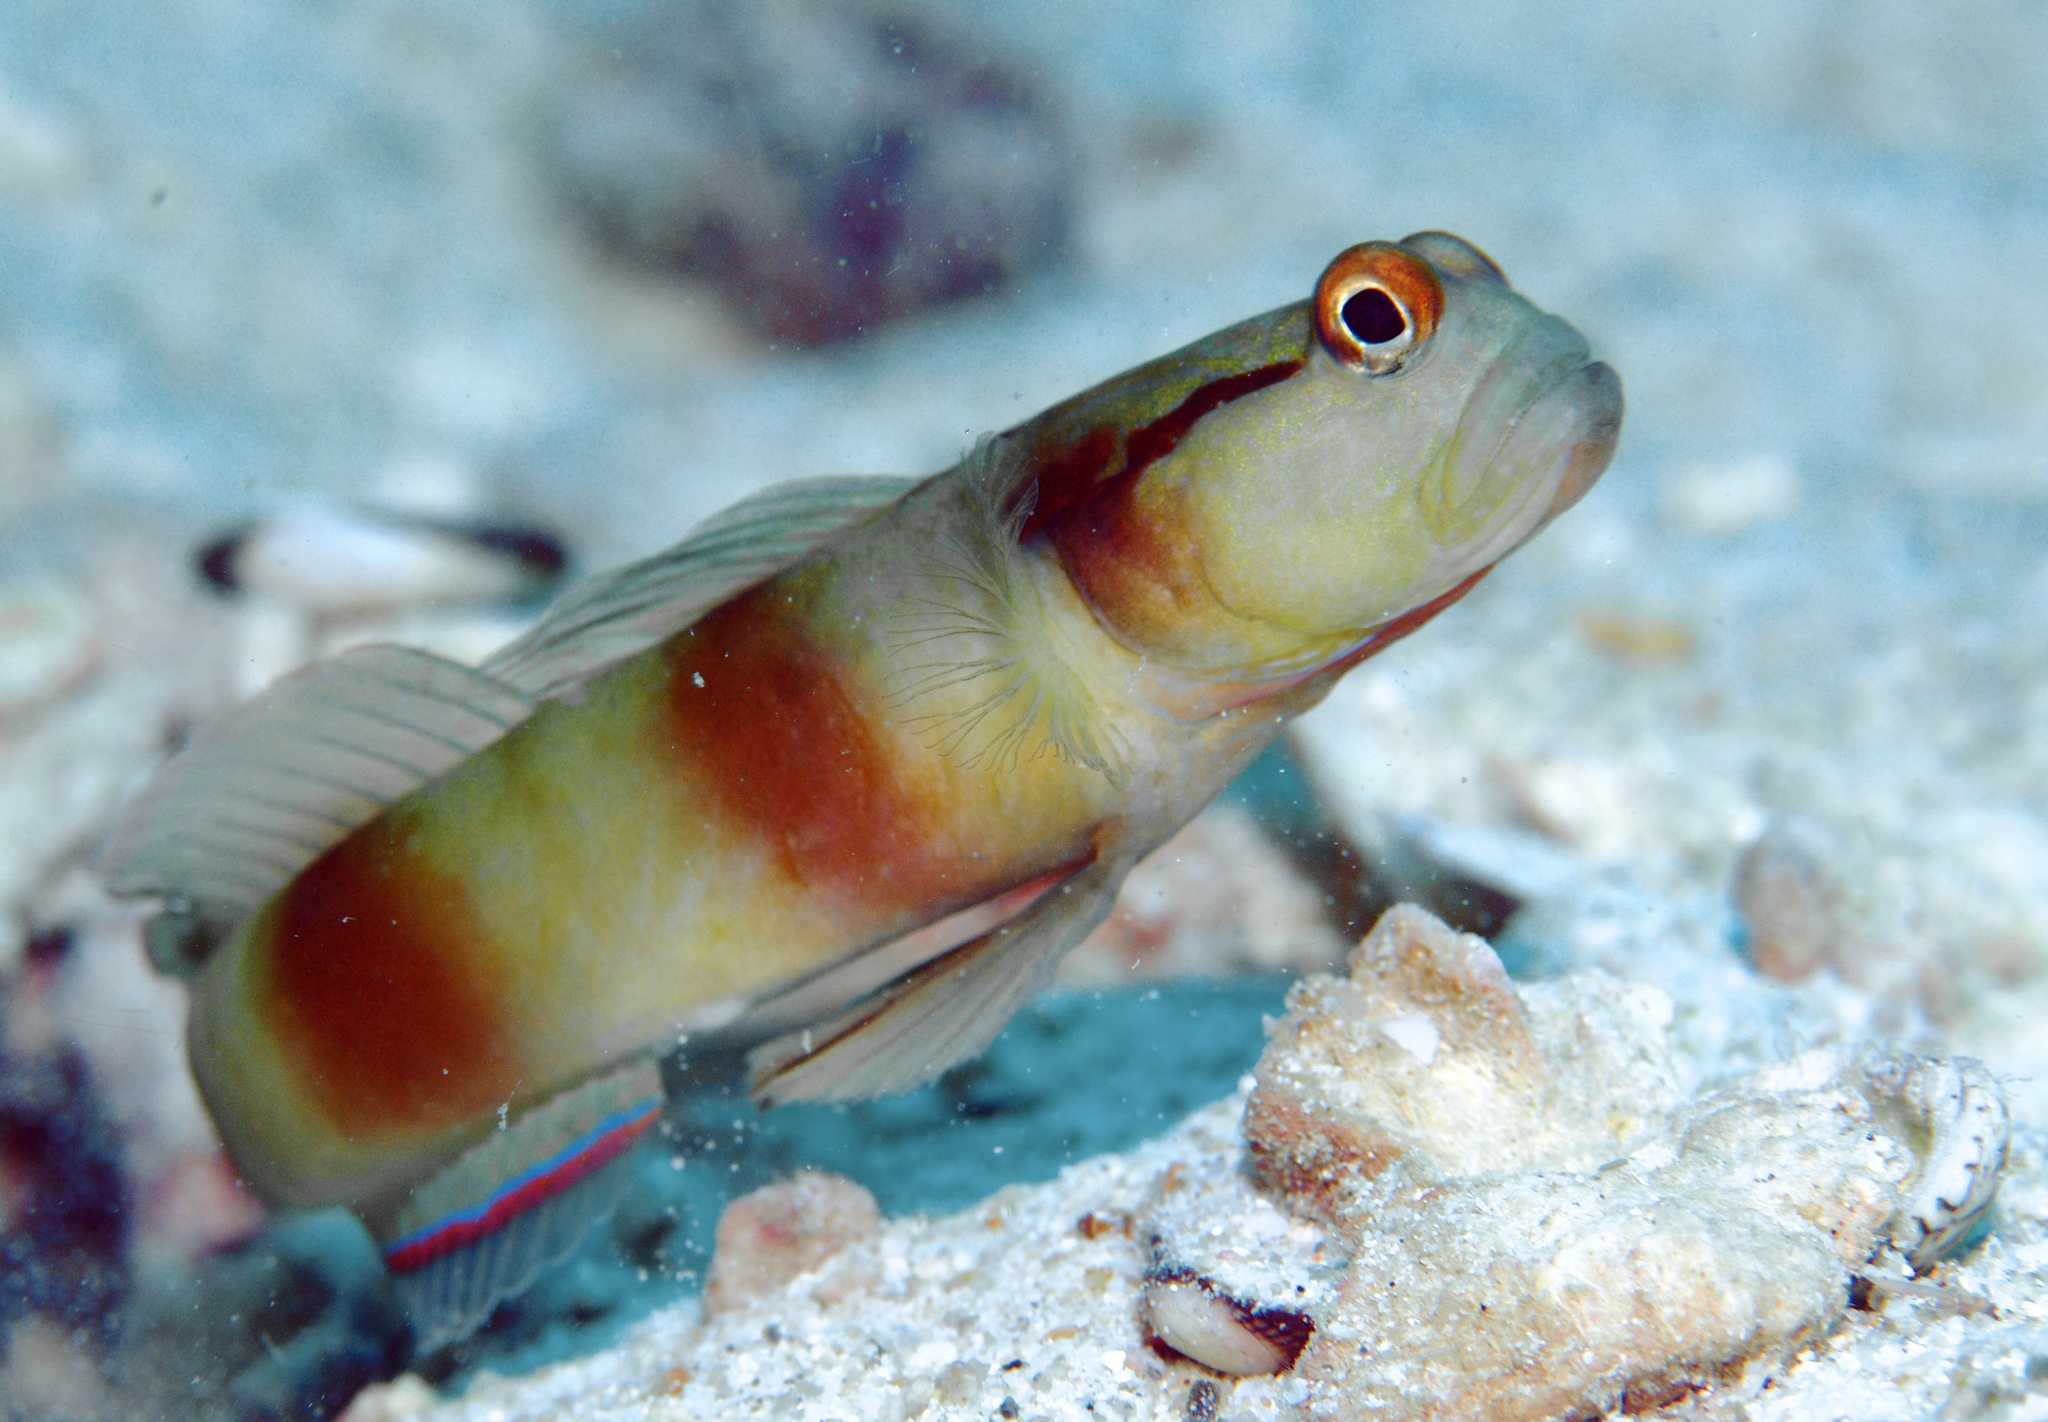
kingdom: Animalia
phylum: Chordata
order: Perciformes
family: Gobiidae
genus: Amblyeleotris
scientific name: Amblyeleotris gymnocephala
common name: Masked shrimpgoby
